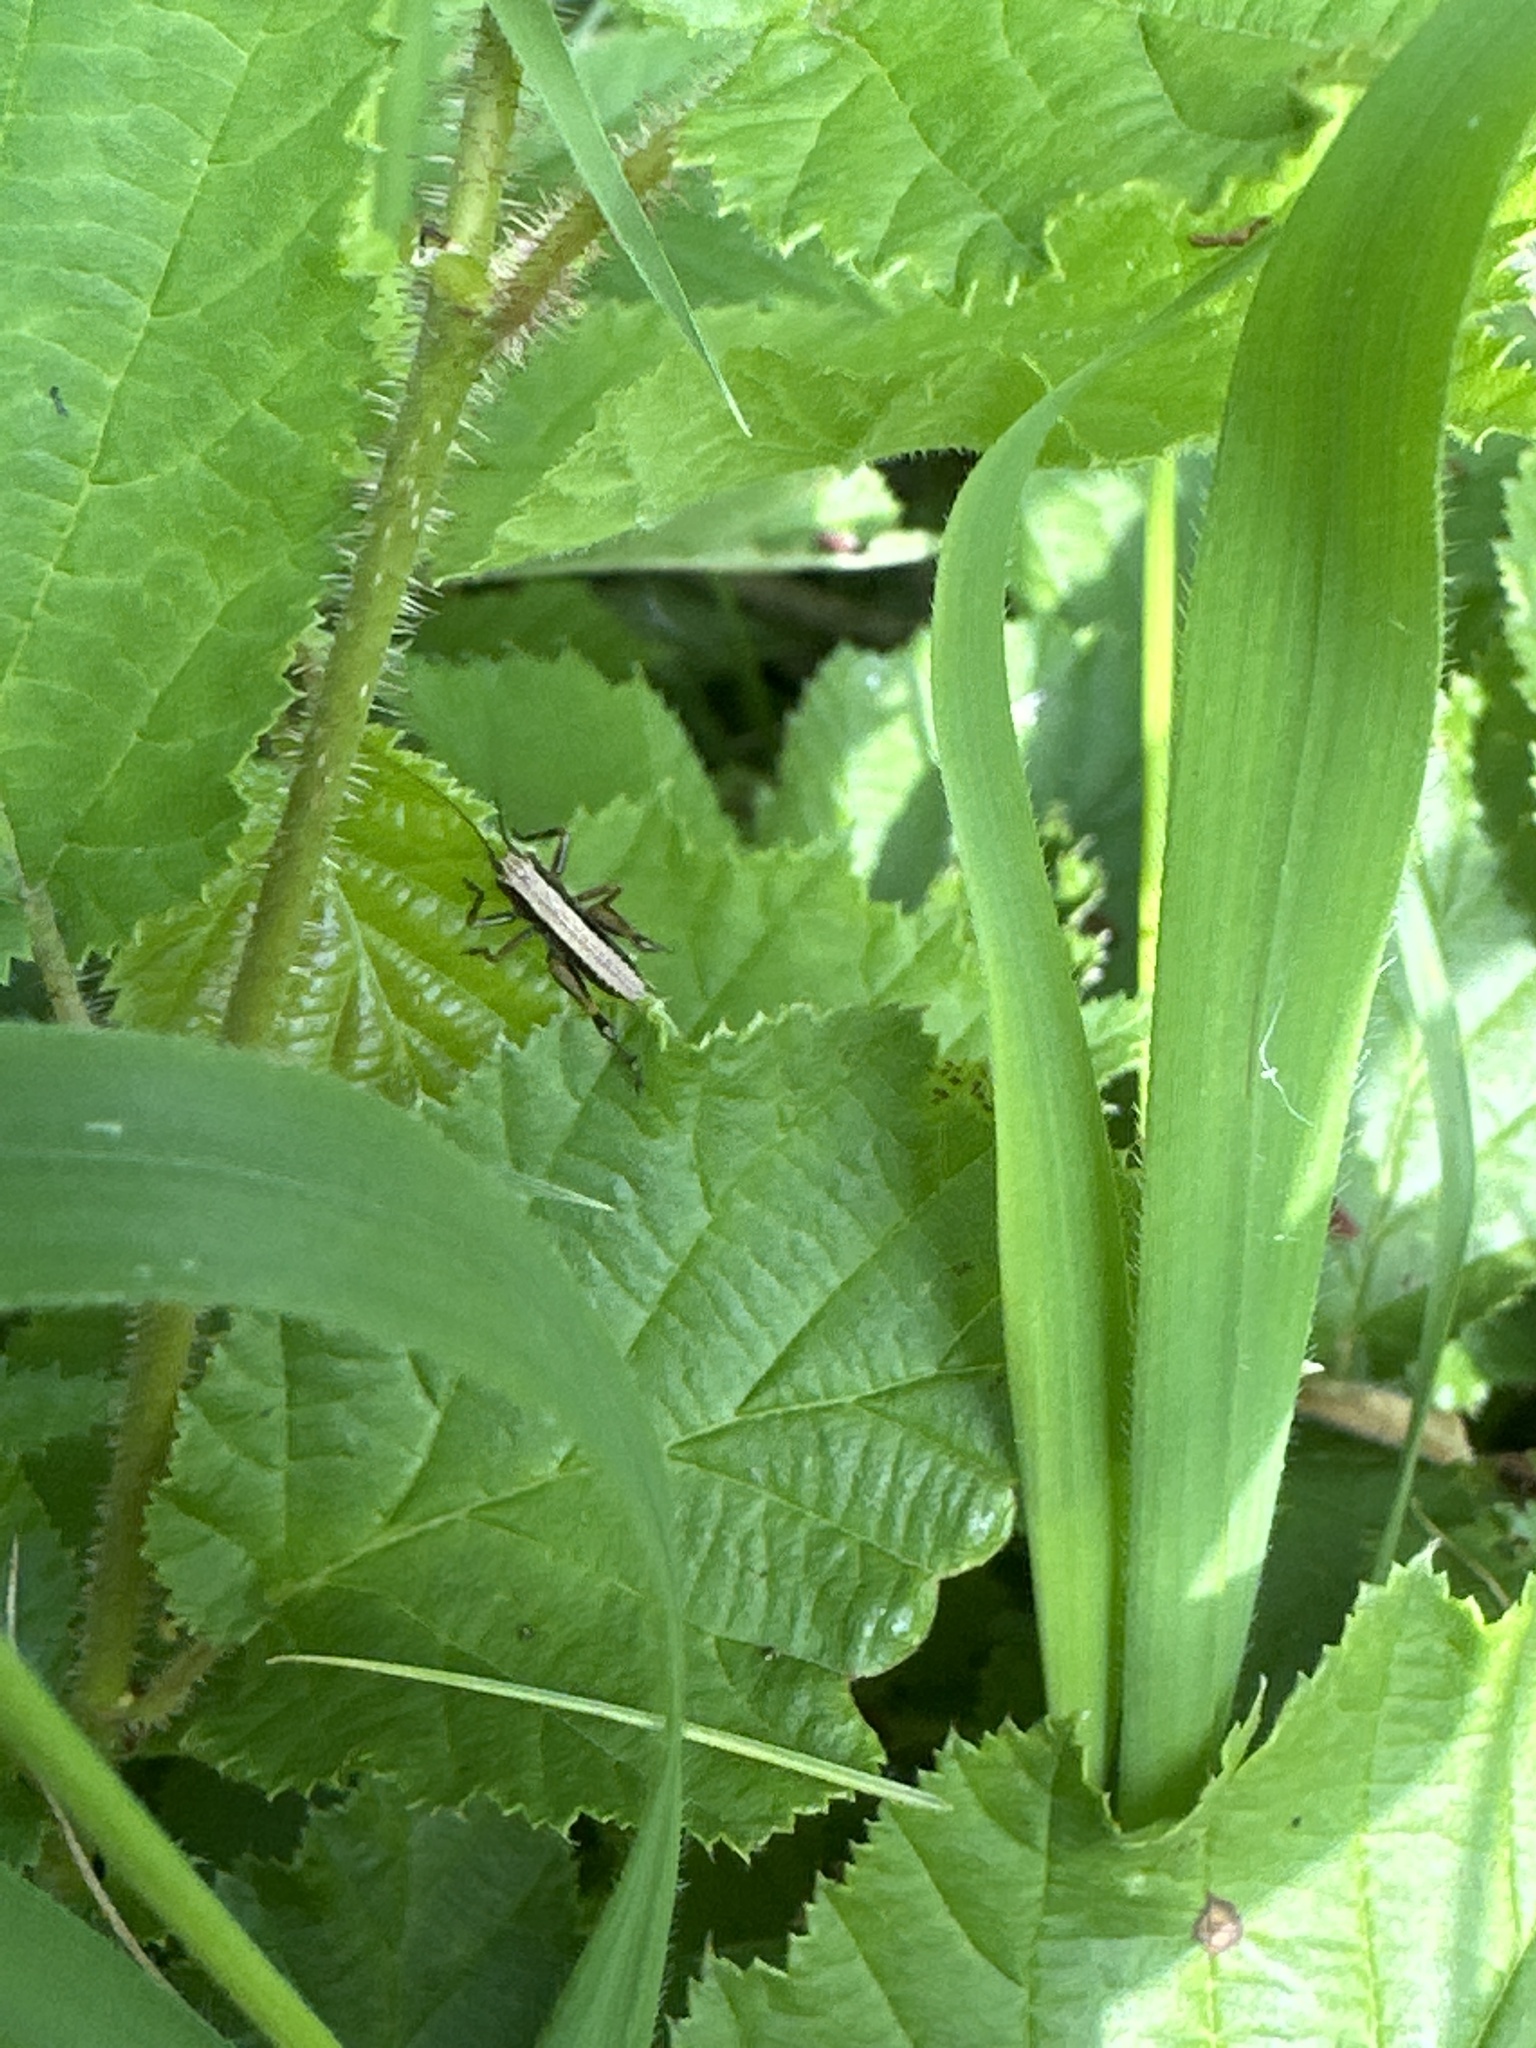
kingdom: Animalia
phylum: Arthropoda
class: Insecta
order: Orthoptera
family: Tettigoniidae
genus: Pholidoptera
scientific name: Pholidoptera griseoaptera
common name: Dark bush-cricket
